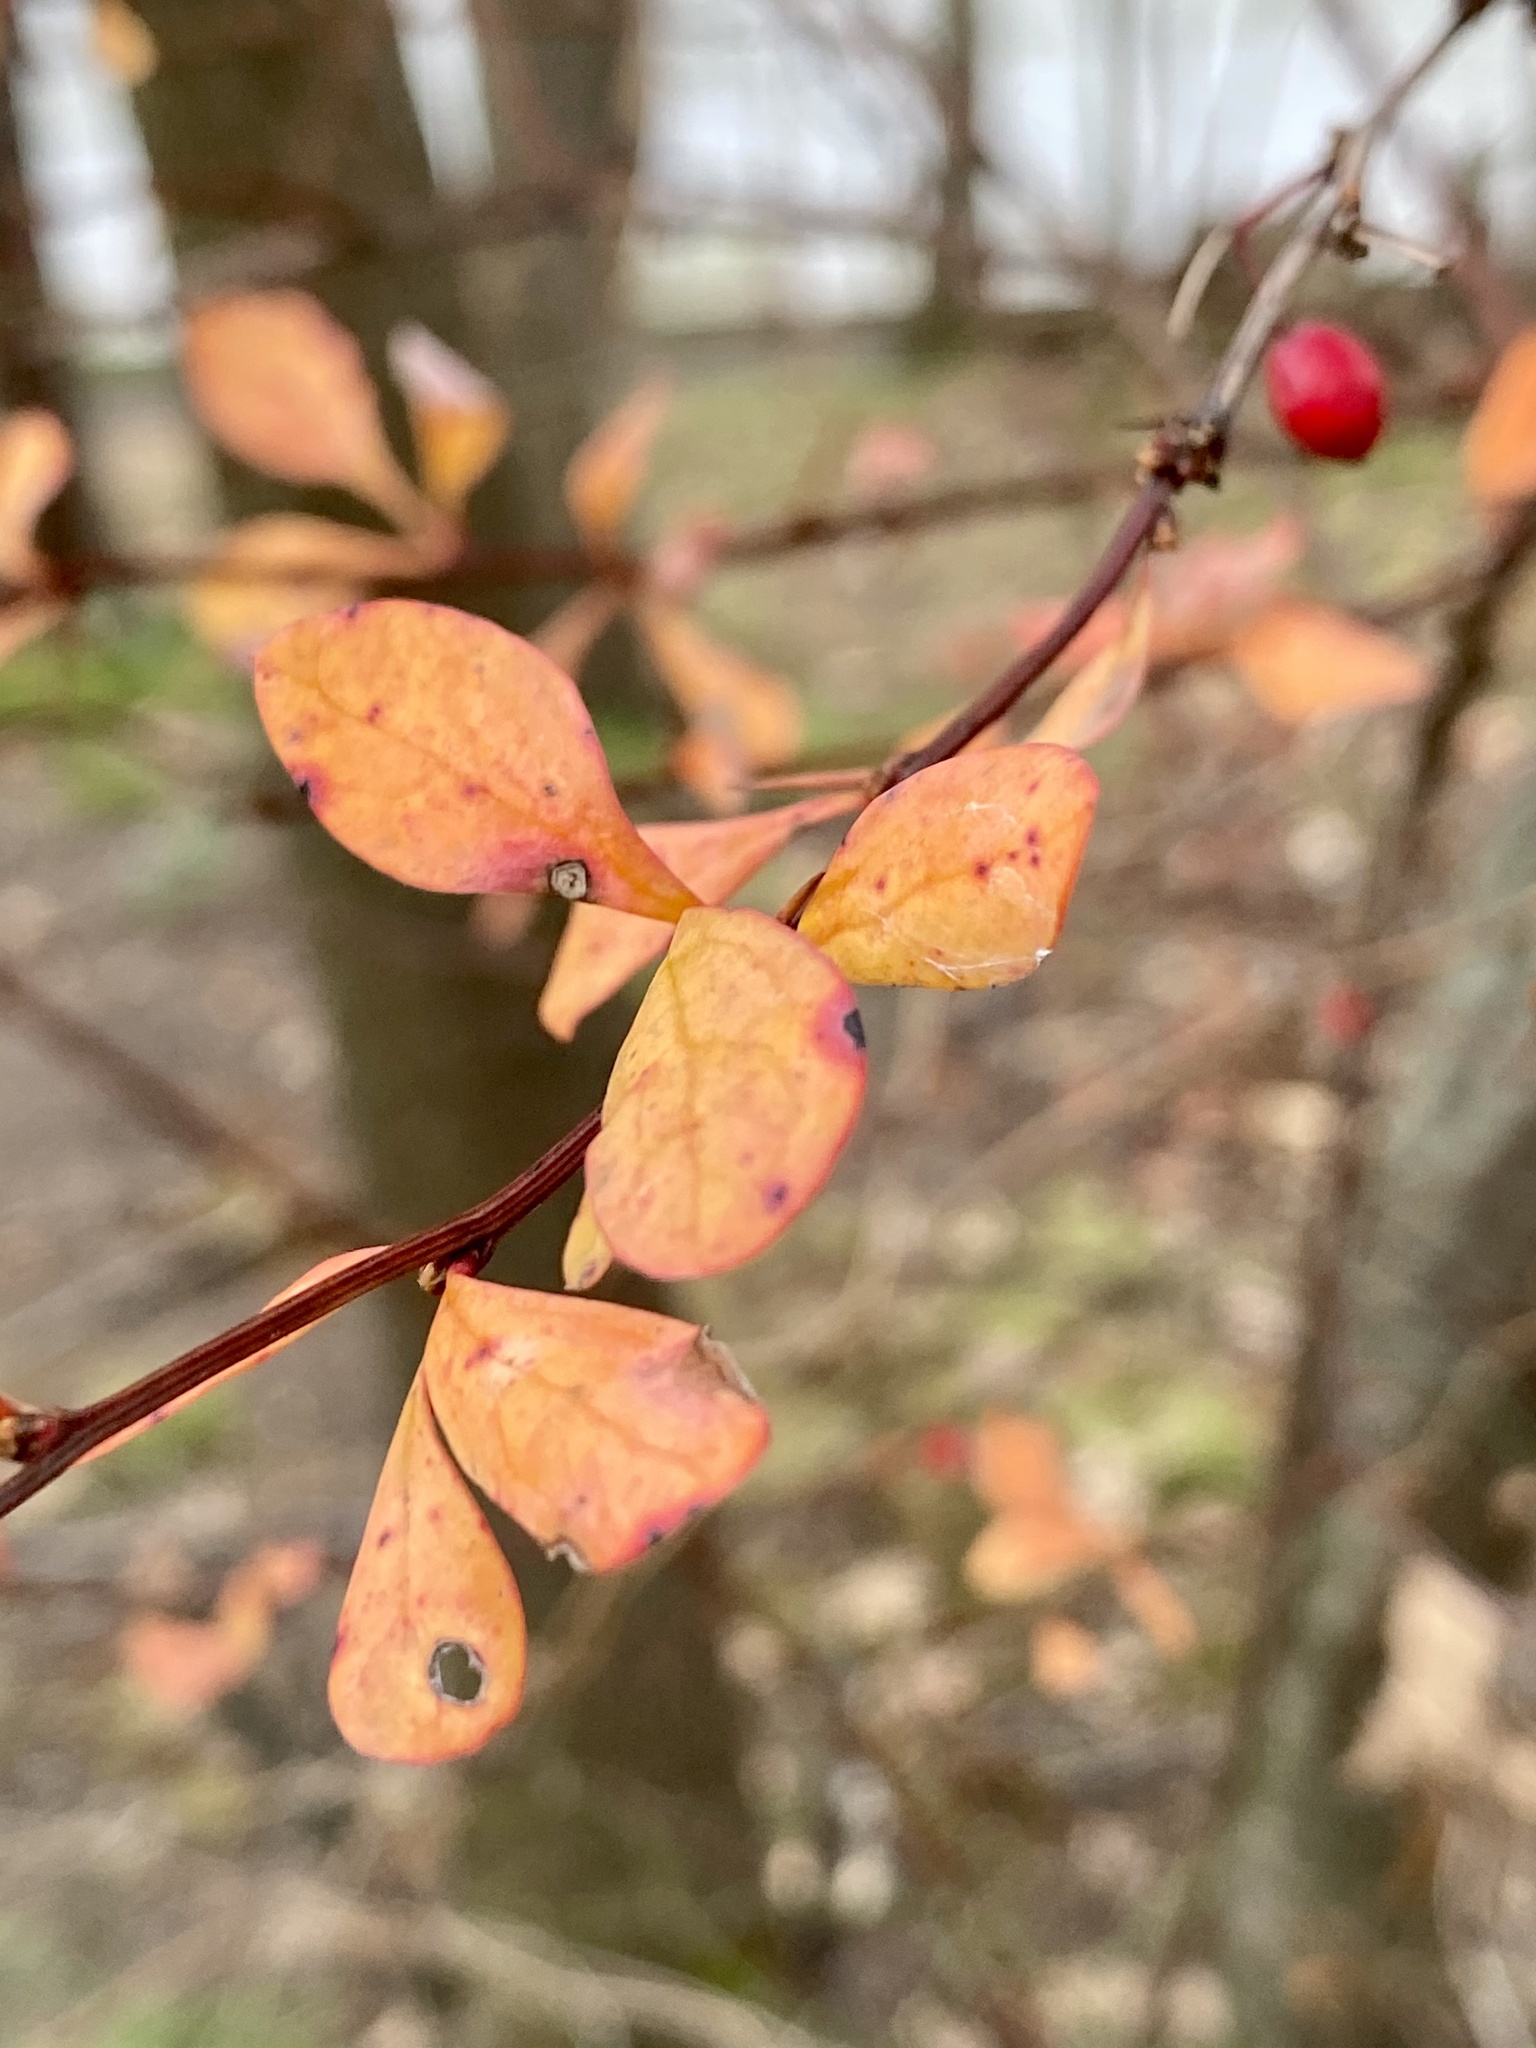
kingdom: Plantae
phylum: Tracheophyta
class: Magnoliopsida
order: Ranunculales
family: Berberidaceae
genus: Berberis
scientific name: Berberis thunbergii
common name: Japanese barberry
